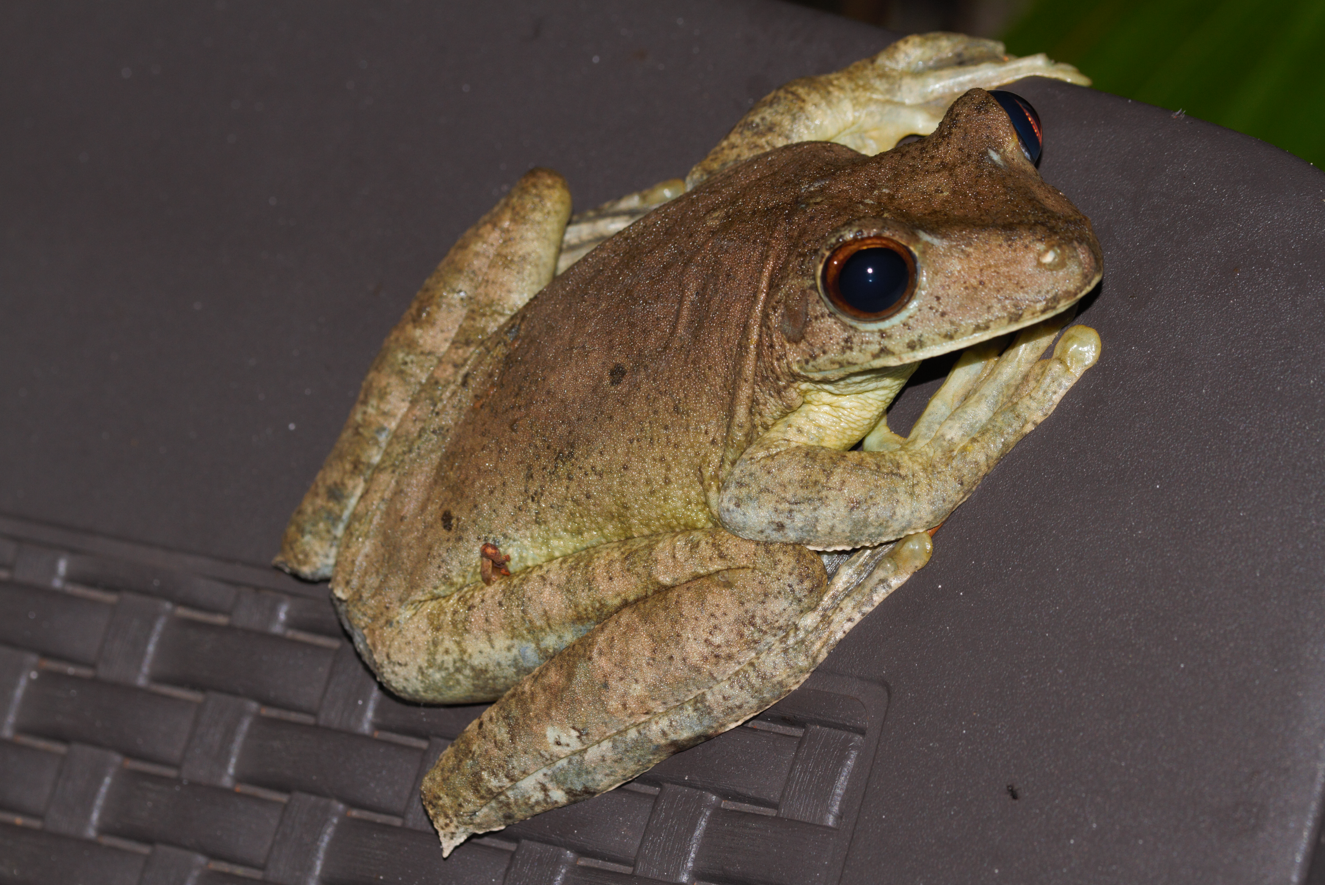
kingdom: Animalia
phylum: Chordata
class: Amphibia
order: Anura
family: Hylidae
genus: Boana
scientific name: Boana boans
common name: Giant gladiator treefrog
